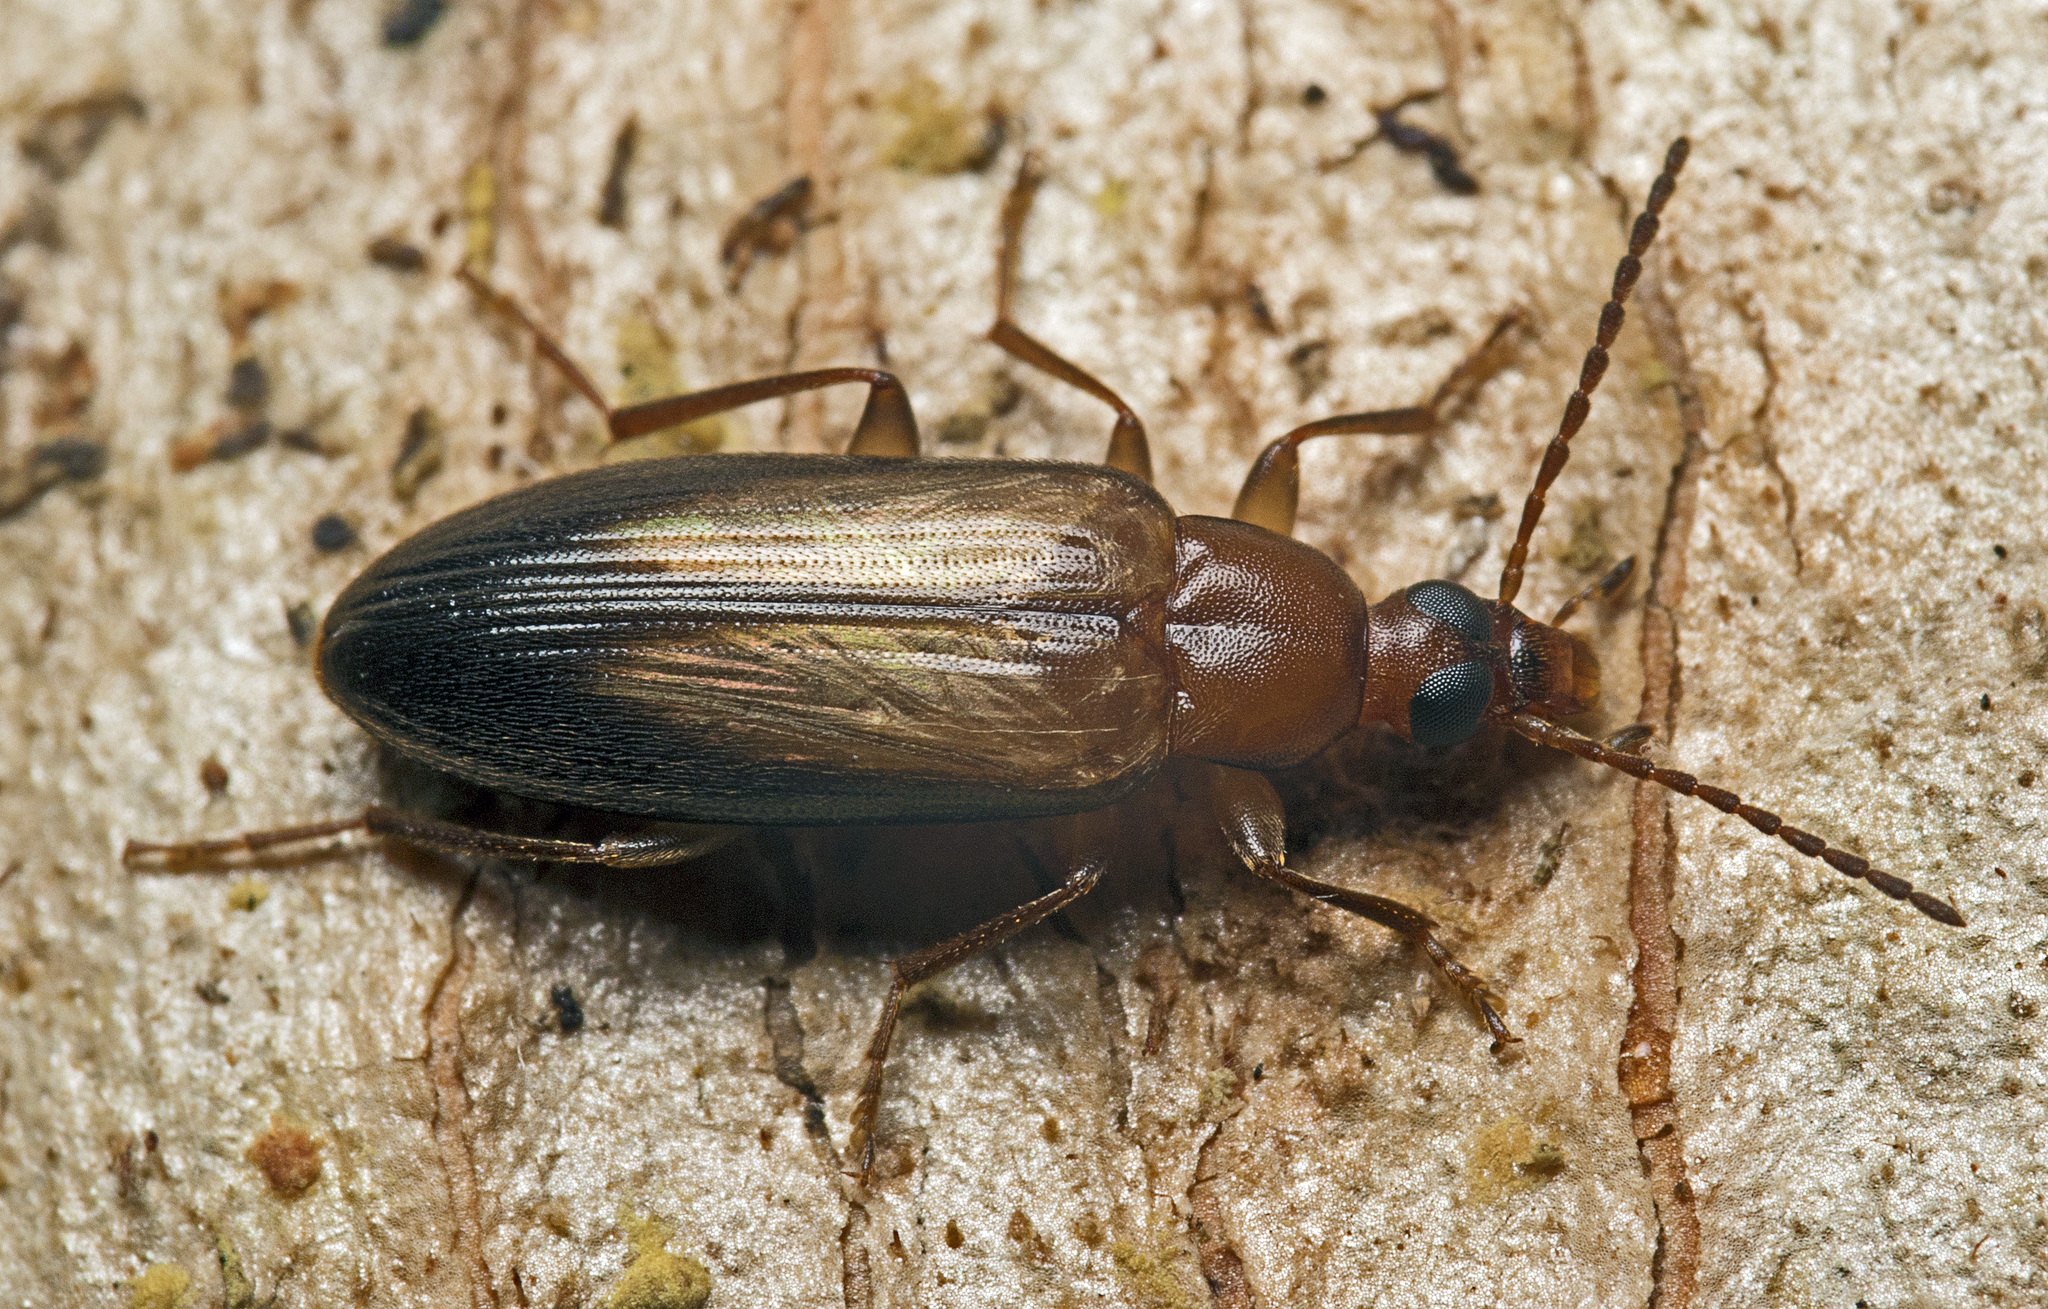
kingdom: Animalia
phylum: Arthropoda
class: Insecta
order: Coleoptera
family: Tenebrionidae
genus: Euomma
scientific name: Euomma
